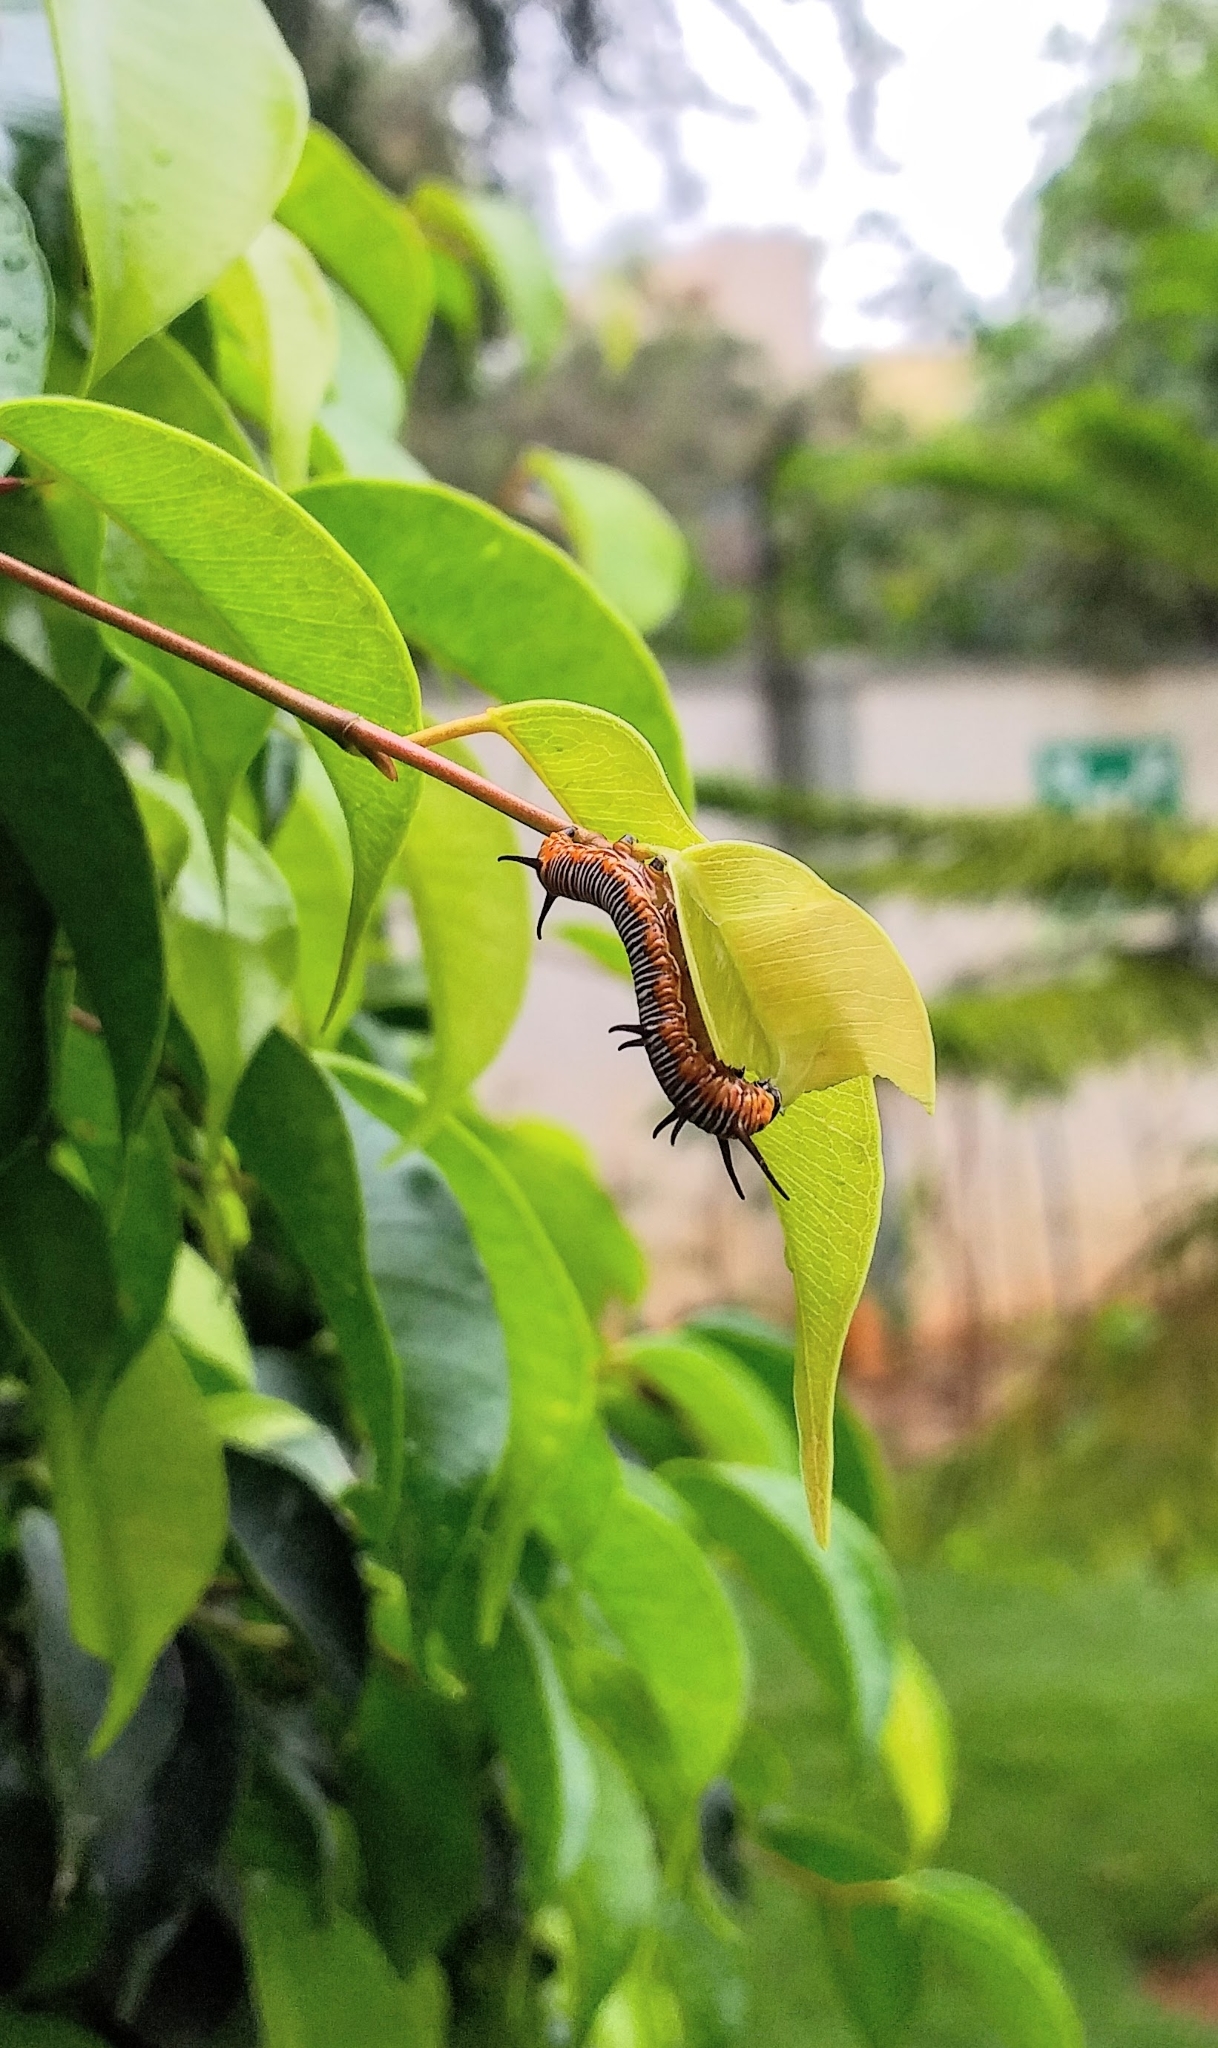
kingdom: Animalia
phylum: Arthropoda
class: Insecta
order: Lepidoptera
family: Nymphalidae
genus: Euploea
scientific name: Euploea core
